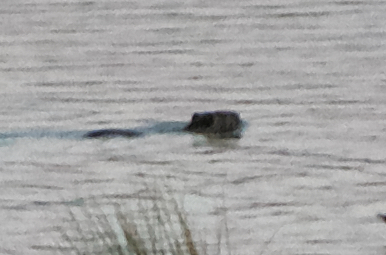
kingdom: Animalia
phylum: Chordata
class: Mammalia
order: Rodentia
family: Myocastoridae
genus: Myocastor
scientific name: Myocastor coypus
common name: Coypu
